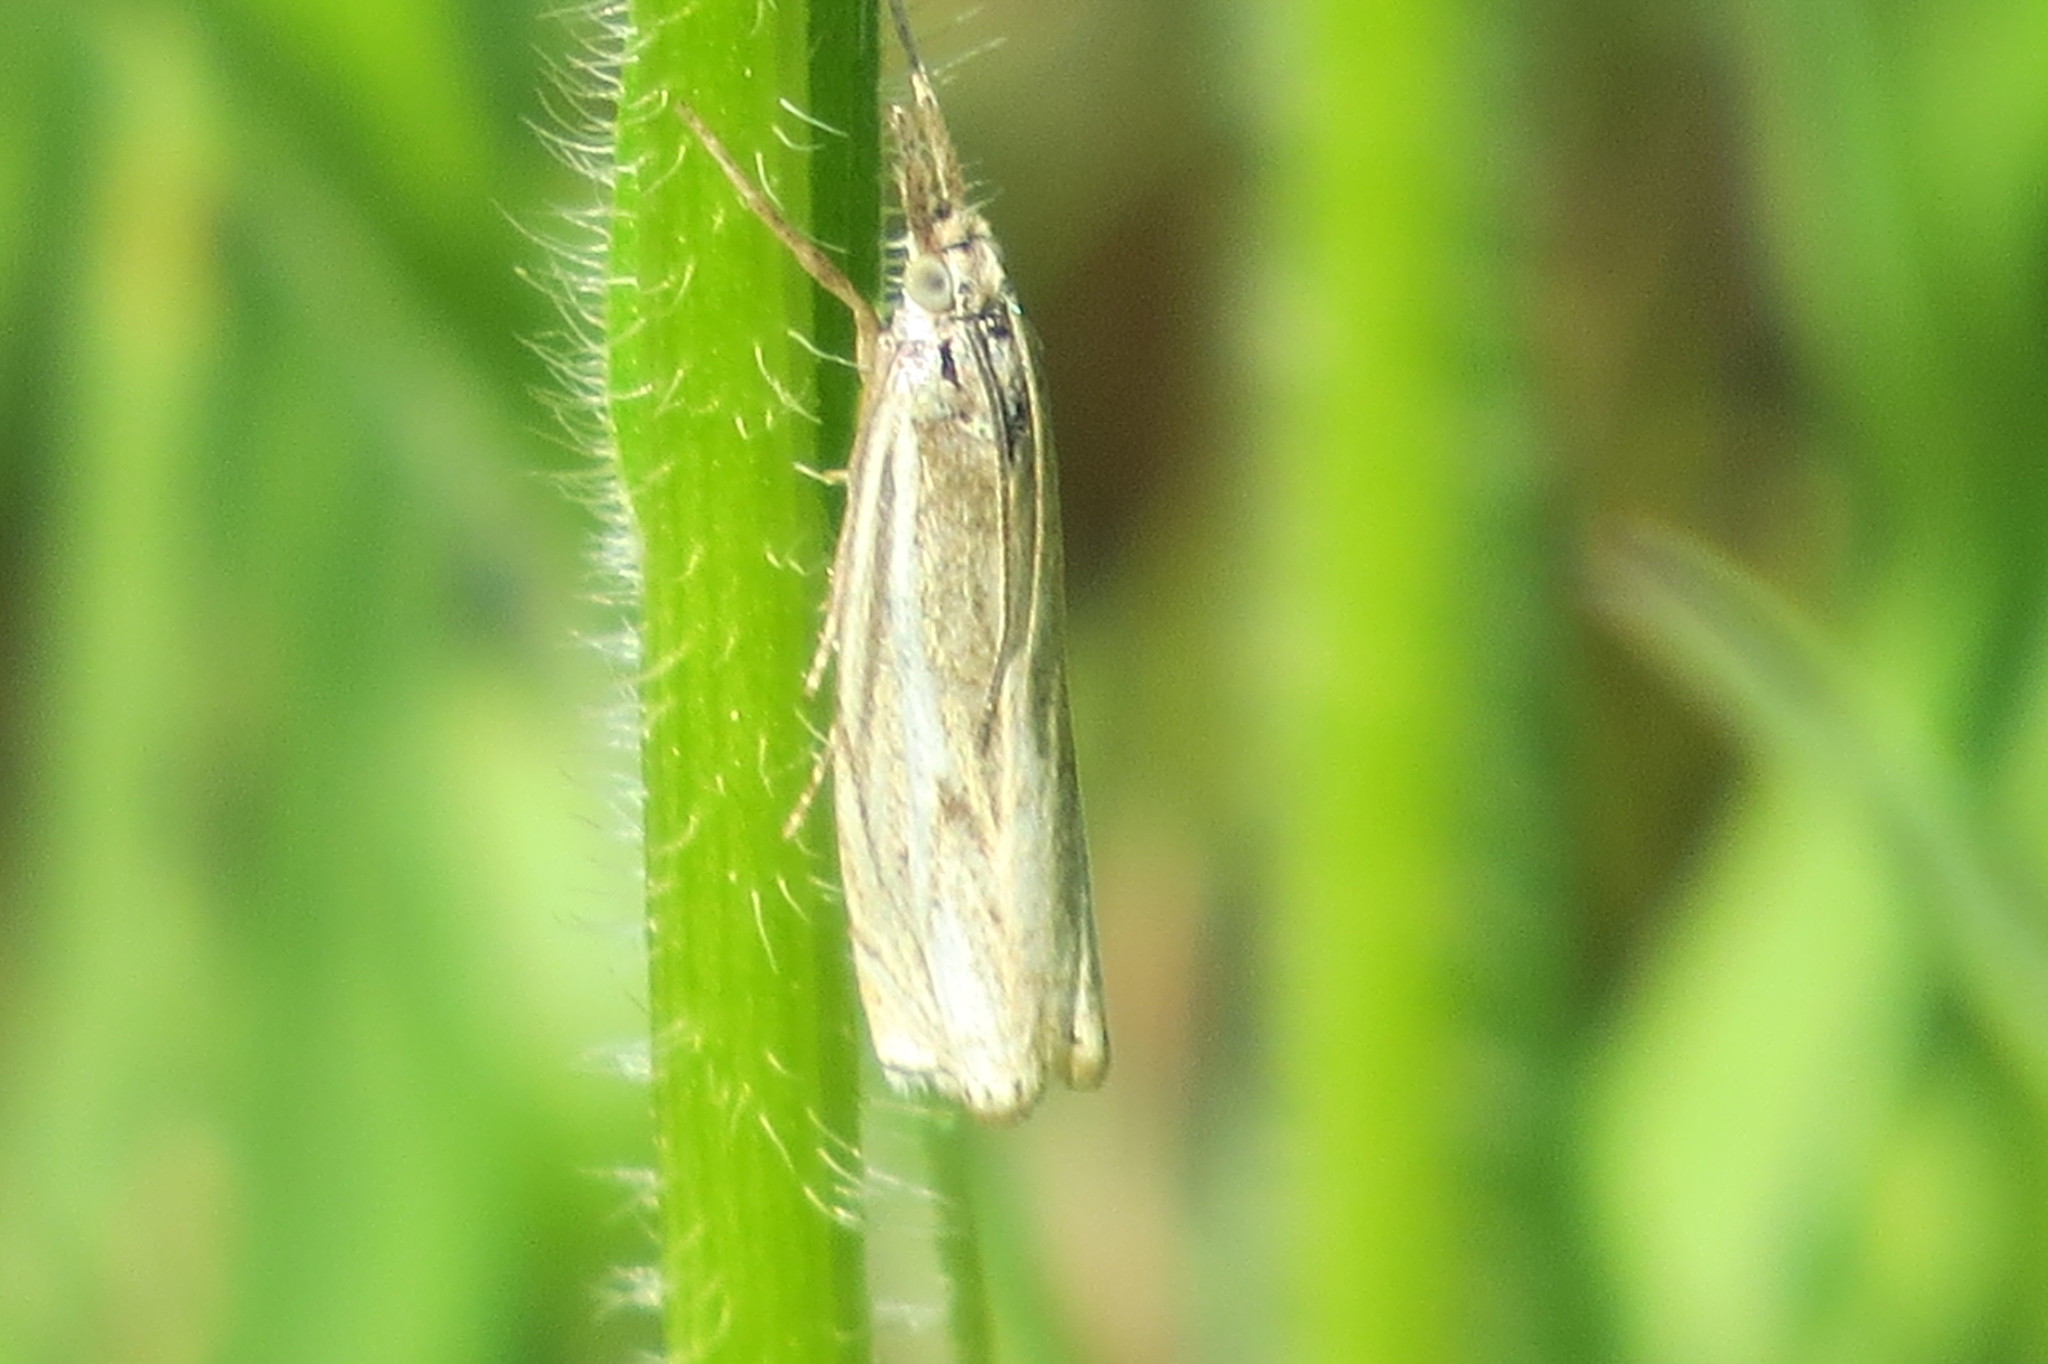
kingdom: Animalia
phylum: Arthropoda
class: Insecta
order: Lepidoptera
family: Crambidae
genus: Crambus
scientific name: Crambus nemorella
